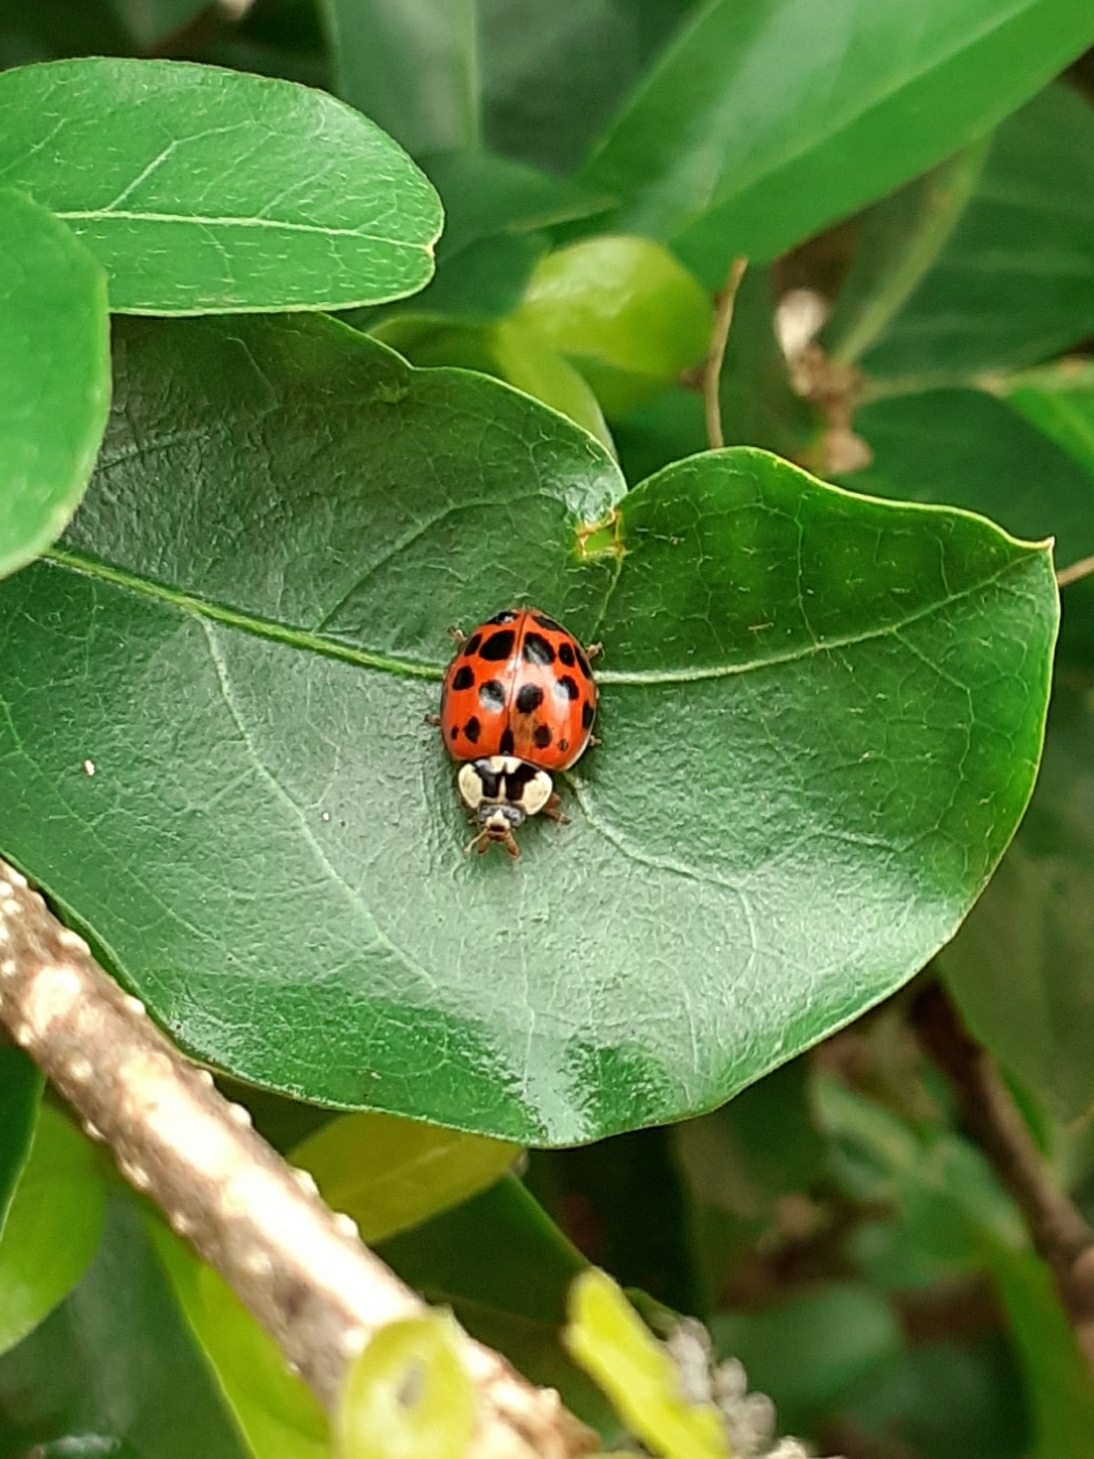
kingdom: Animalia
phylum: Arthropoda
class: Insecta
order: Coleoptera
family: Coccinellidae
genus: Harmonia
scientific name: Harmonia axyridis
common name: Harlequin ladybird
